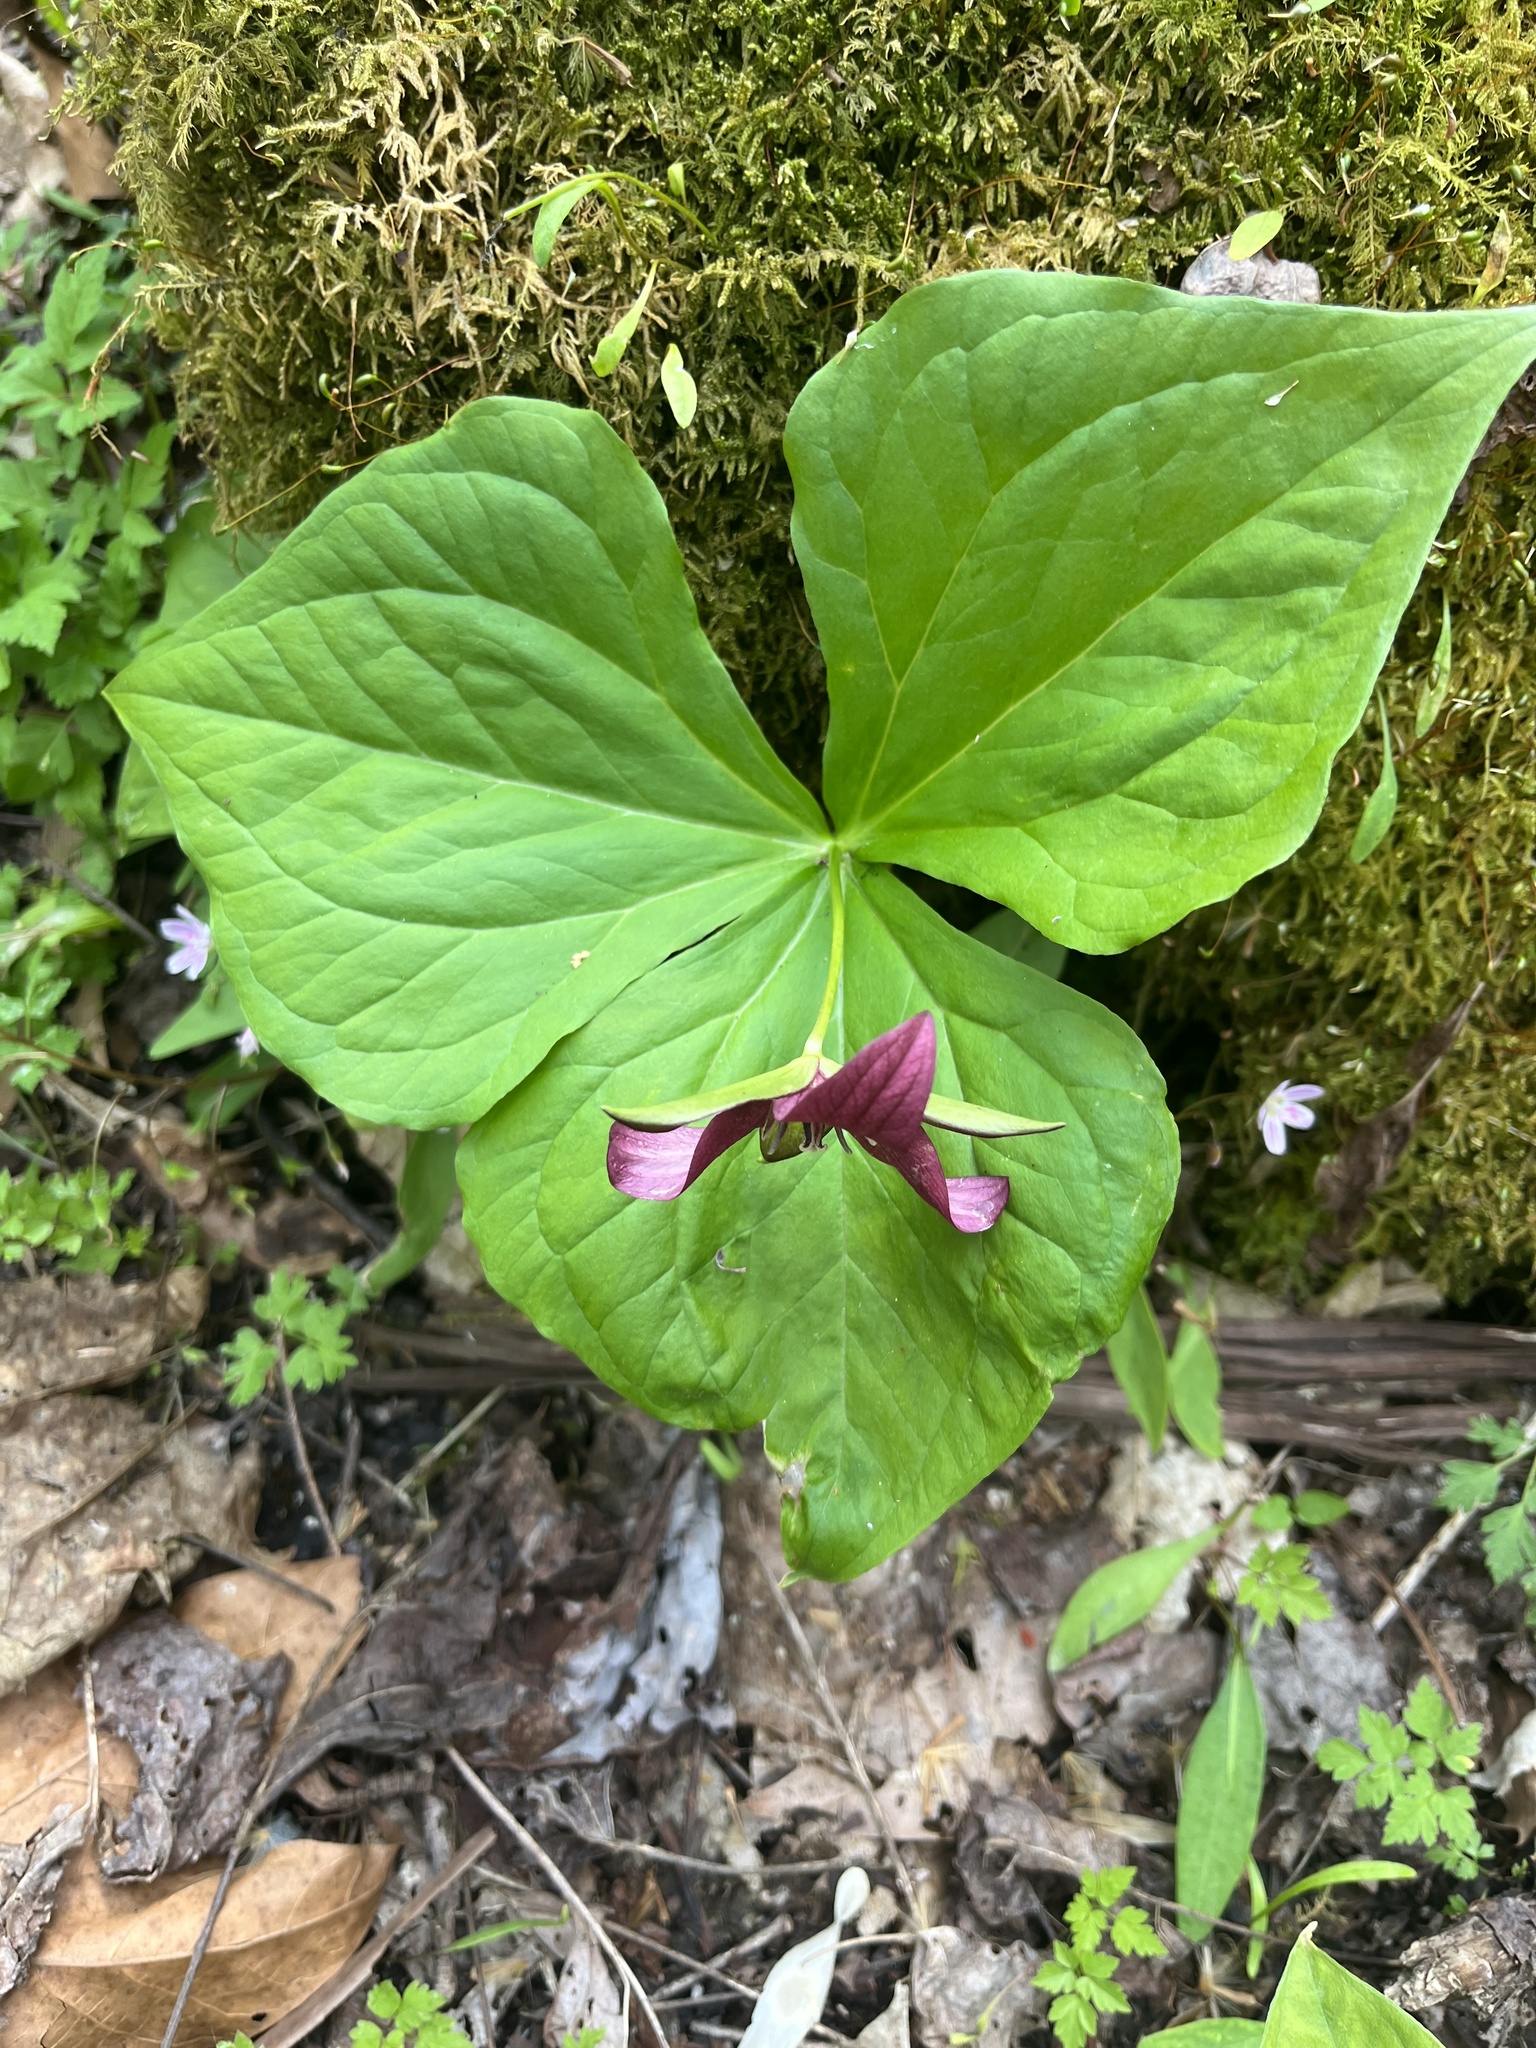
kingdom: Plantae
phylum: Tracheophyta
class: Liliopsida
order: Liliales
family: Melanthiaceae
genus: Trillium
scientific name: Trillium erectum
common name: Purple trillium
